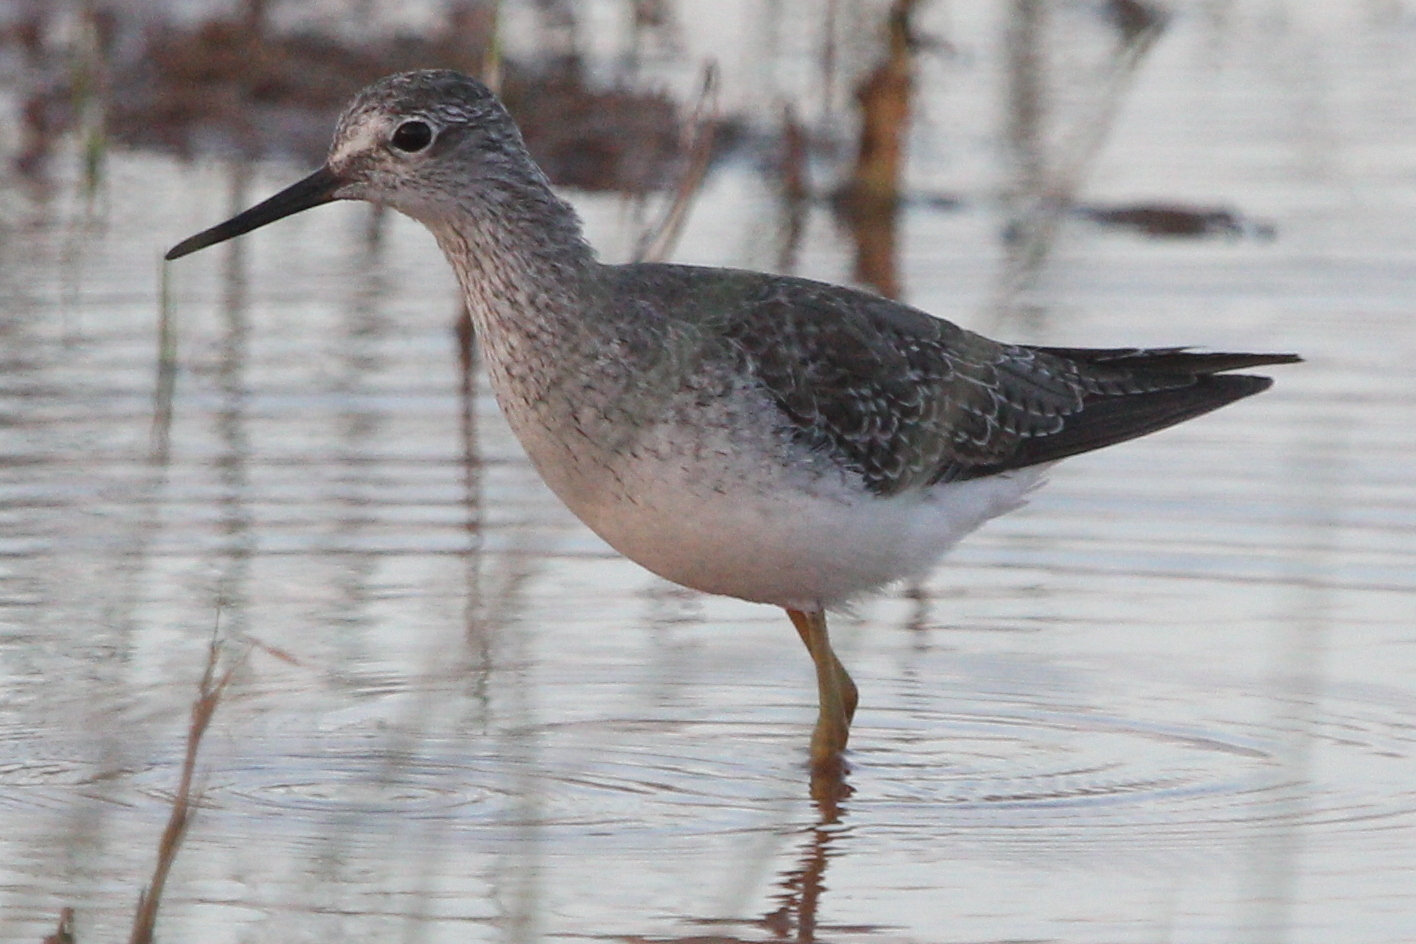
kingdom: Animalia
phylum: Chordata
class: Aves
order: Charadriiformes
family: Scolopacidae
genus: Tringa
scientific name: Tringa flavipes
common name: Lesser yellowlegs
